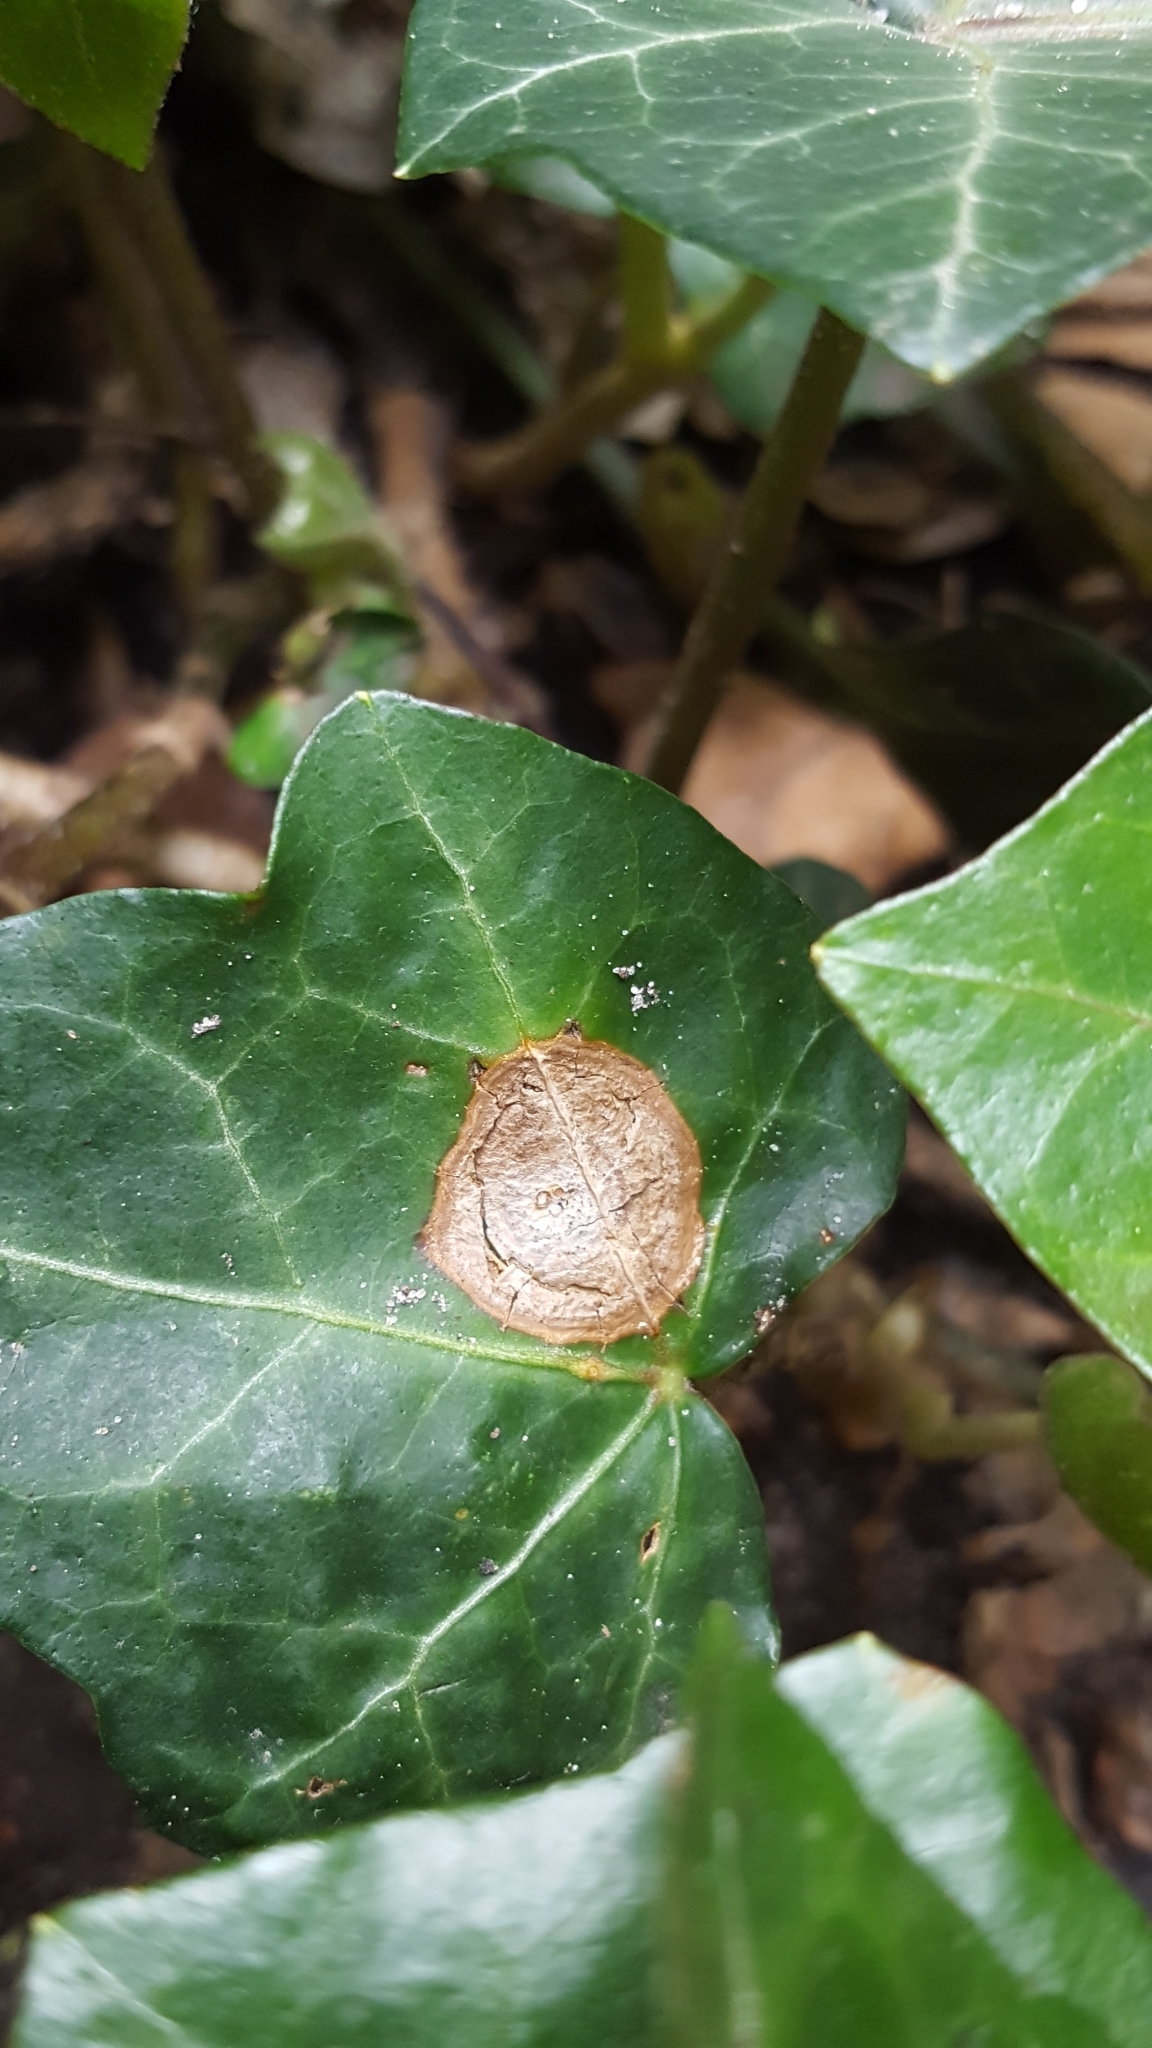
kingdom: Plantae
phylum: Tracheophyta
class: Magnoliopsida
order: Apiales
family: Araliaceae
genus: Hedera
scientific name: Hedera helix
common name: Ivy
